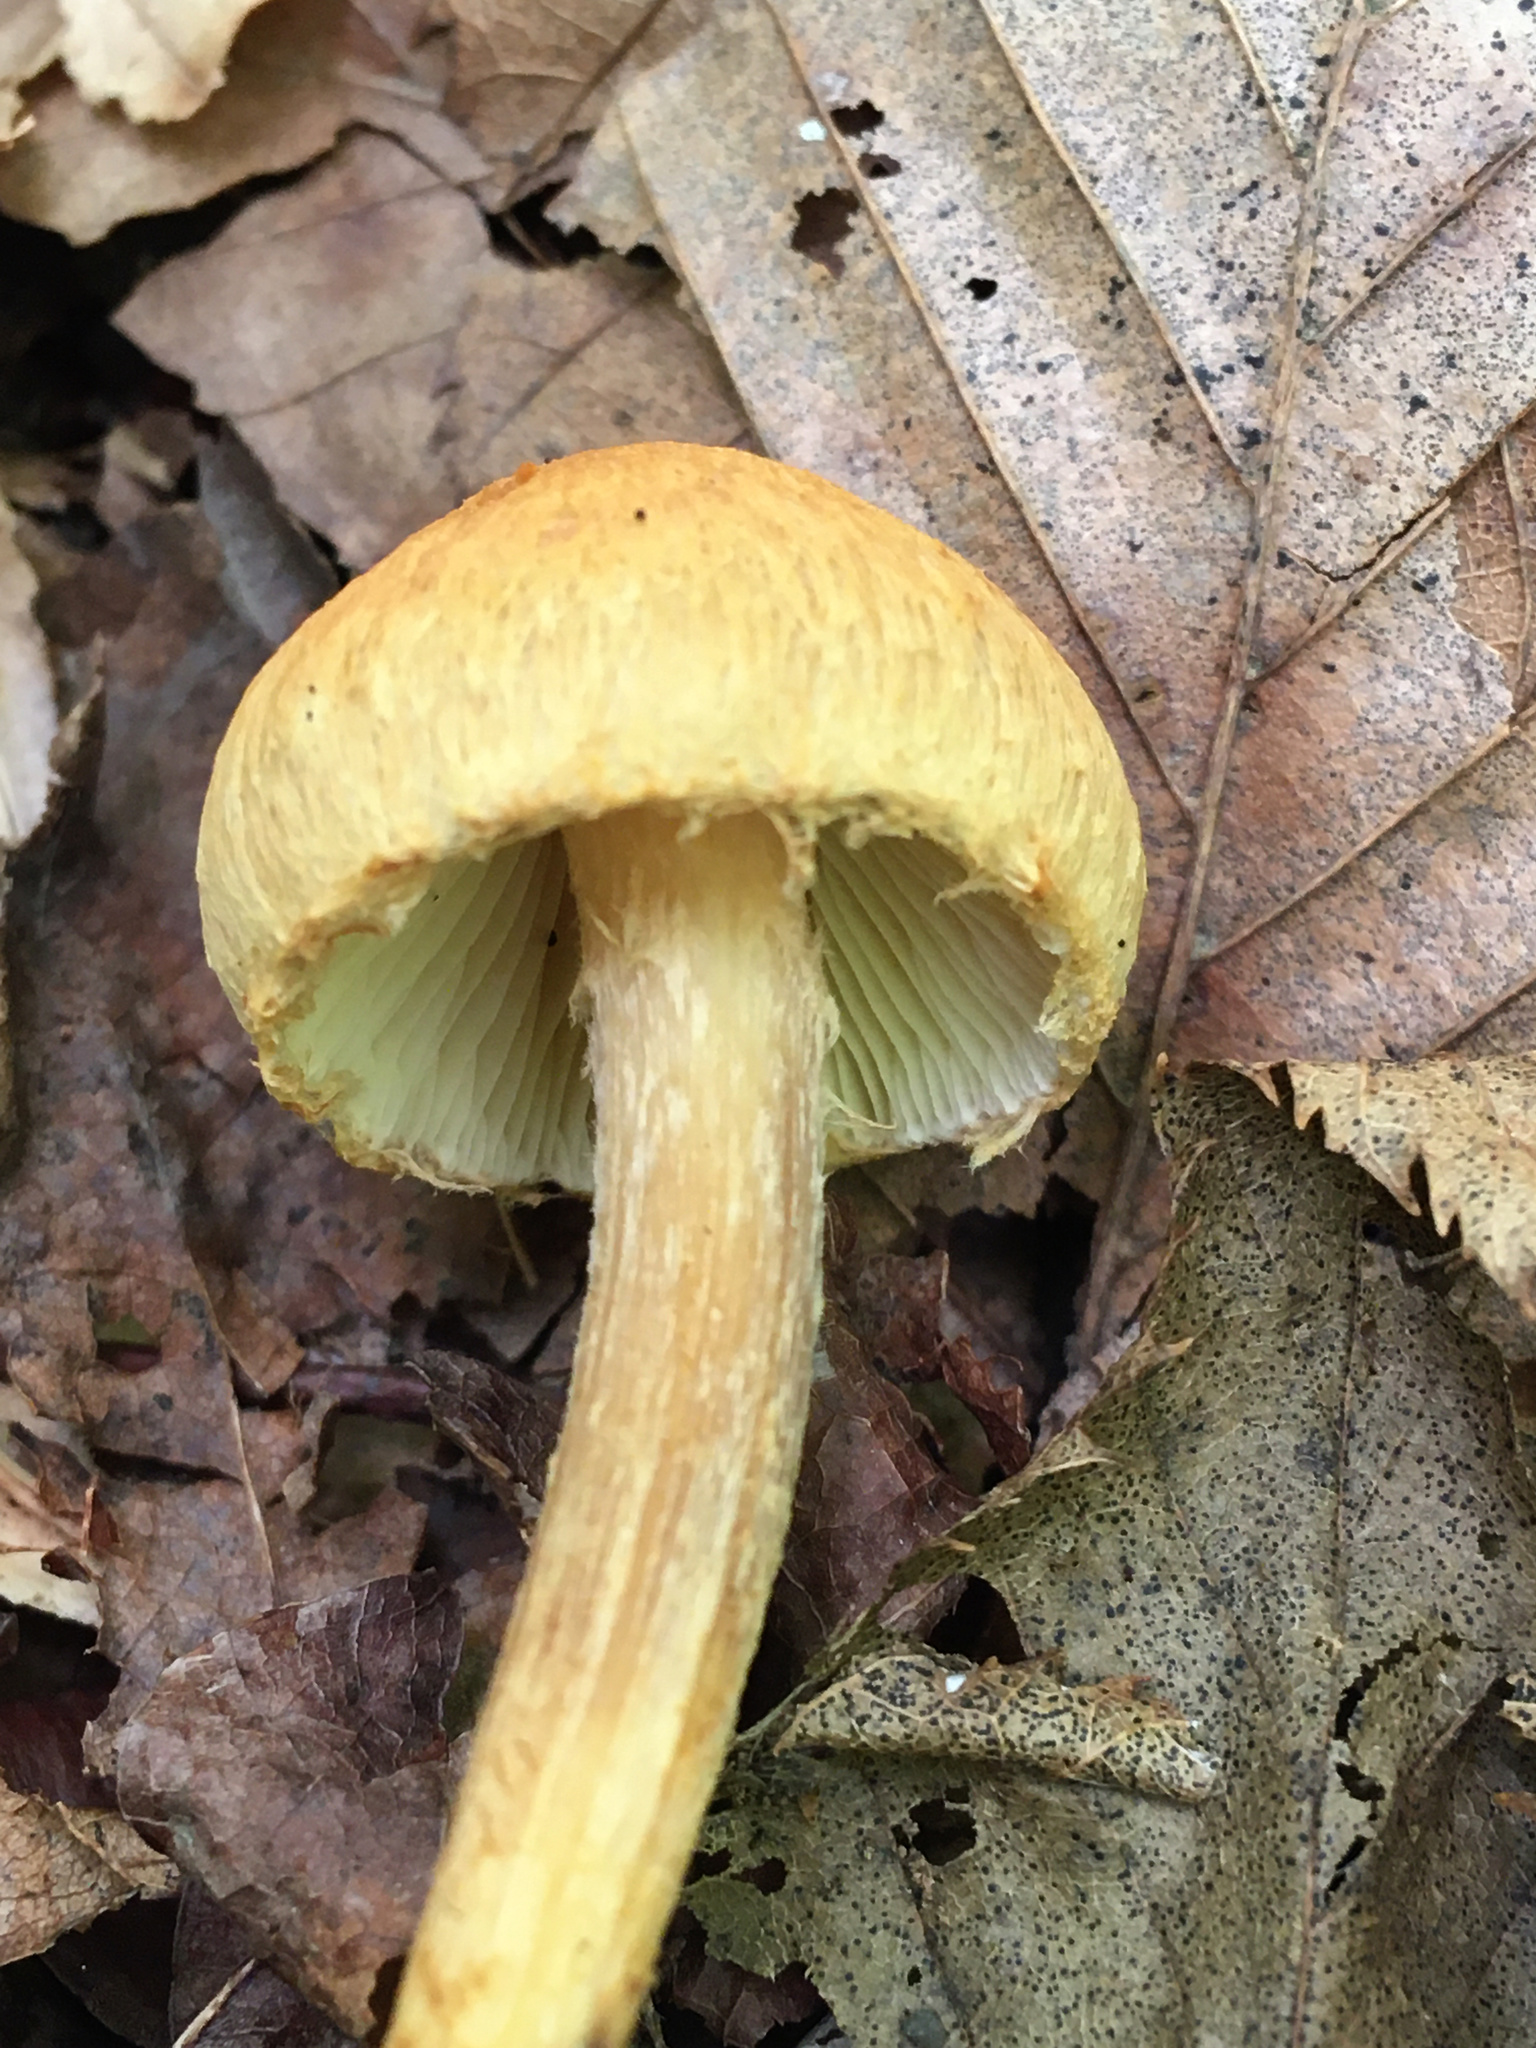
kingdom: Fungi
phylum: Basidiomycota
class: Agaricomycetes
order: Agaricales
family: Inocybaceae
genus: Inocybe
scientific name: Inocybe subochracea
